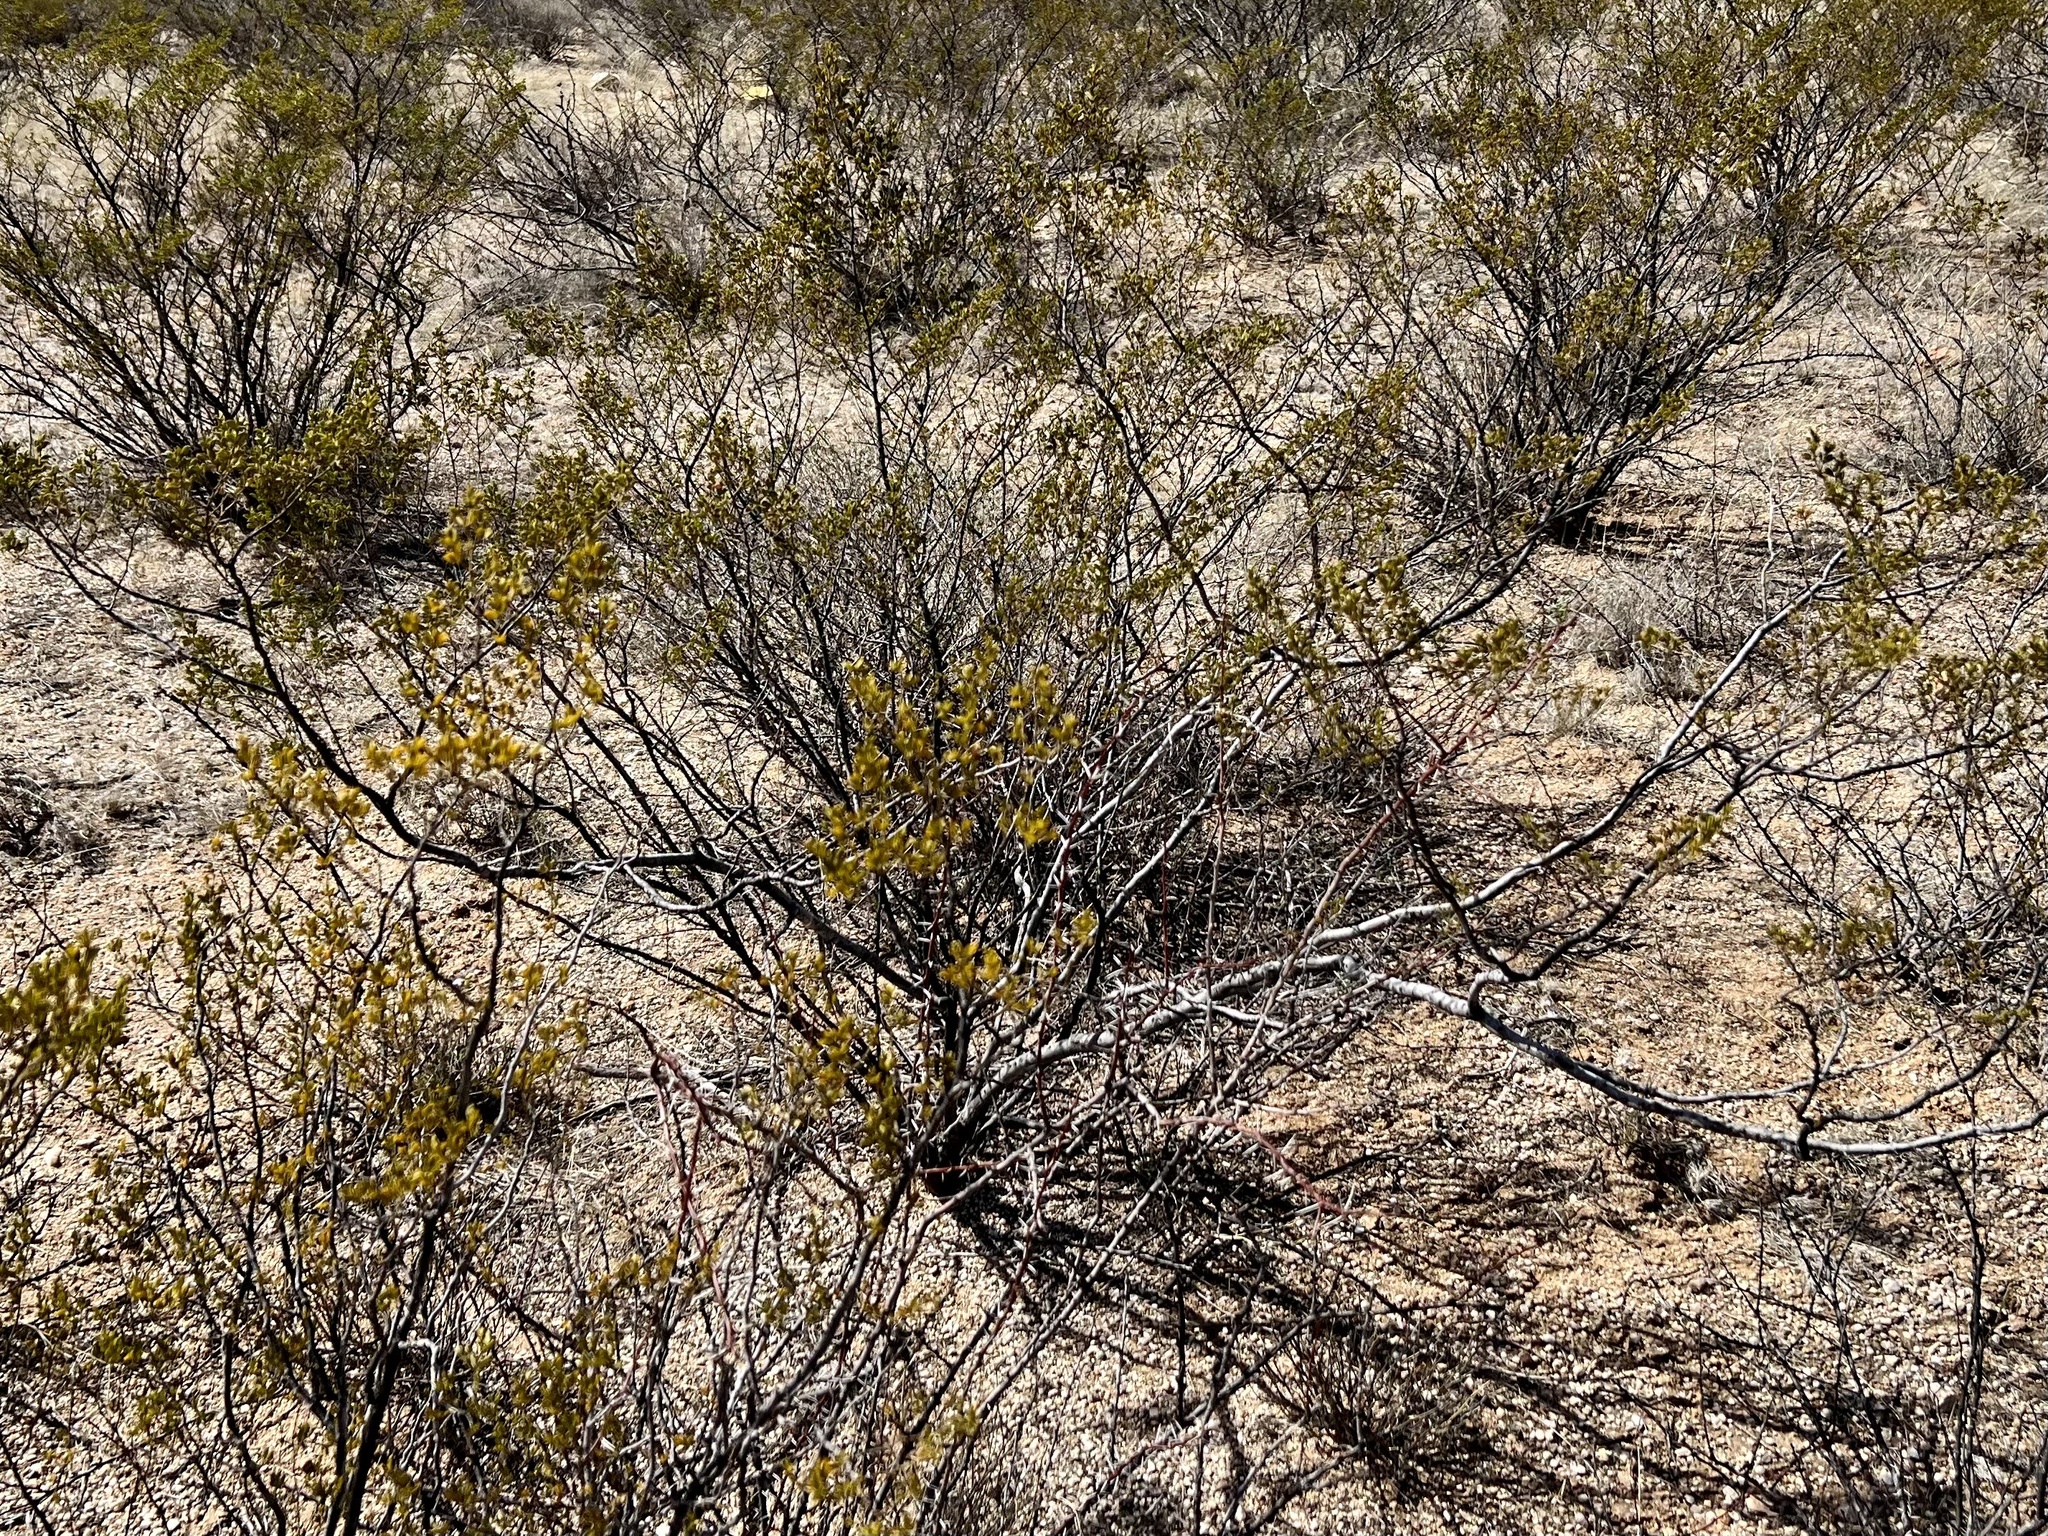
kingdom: Plantae
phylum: Tracheophyta
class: Magnoliopsida
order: Zygophyllales
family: Zygophyllaceae
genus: Larrea
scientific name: Larrea tridentata
